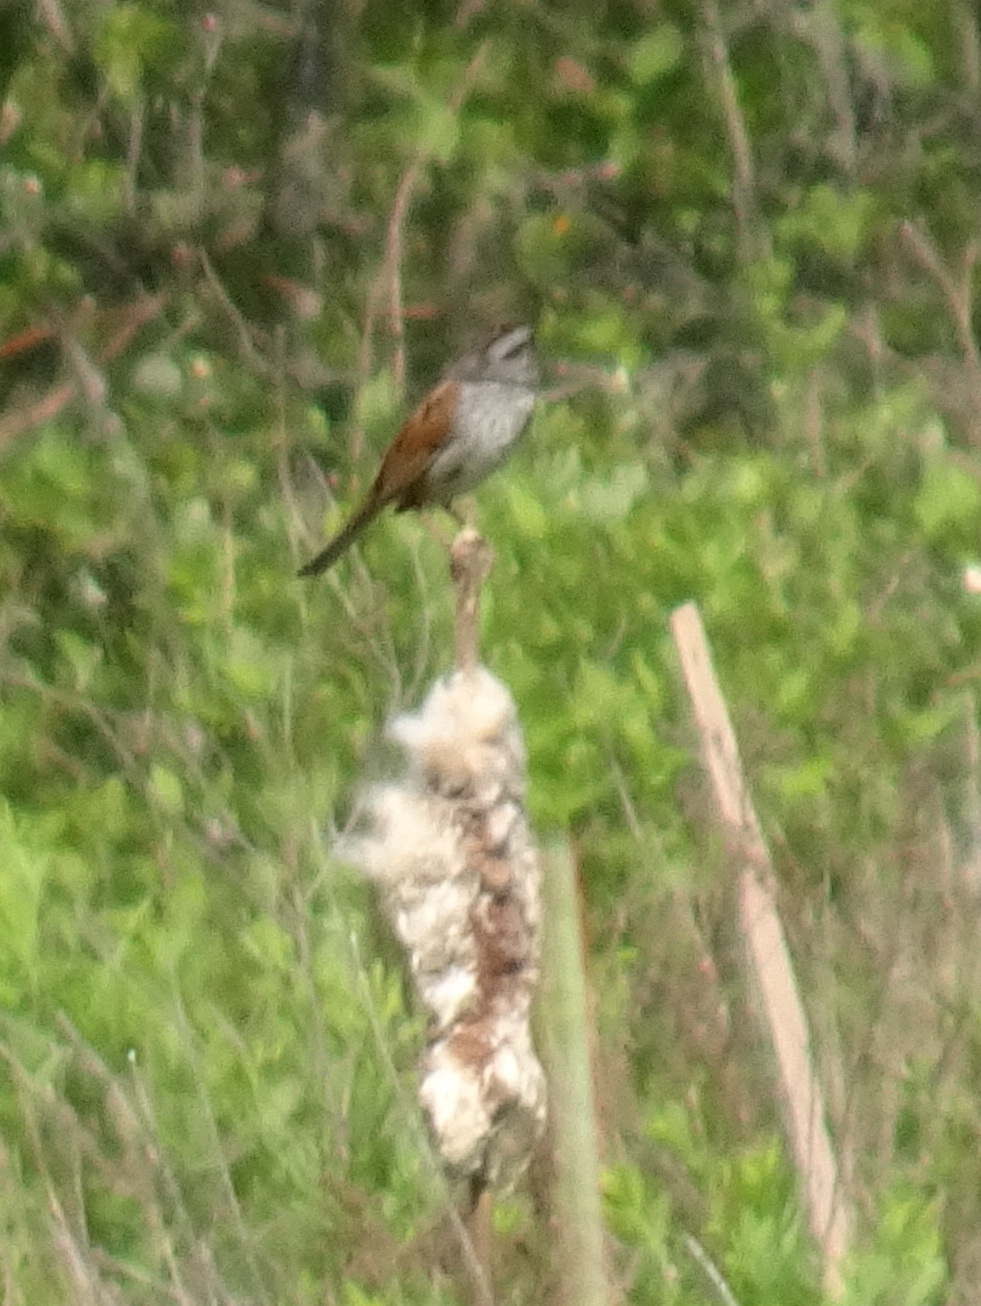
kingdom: Animalia
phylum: Chordata
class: Aves
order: Passeriformes
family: Passerellidae
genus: Melospiza
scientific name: Melospiza georgiana
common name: Swamp sparrow
